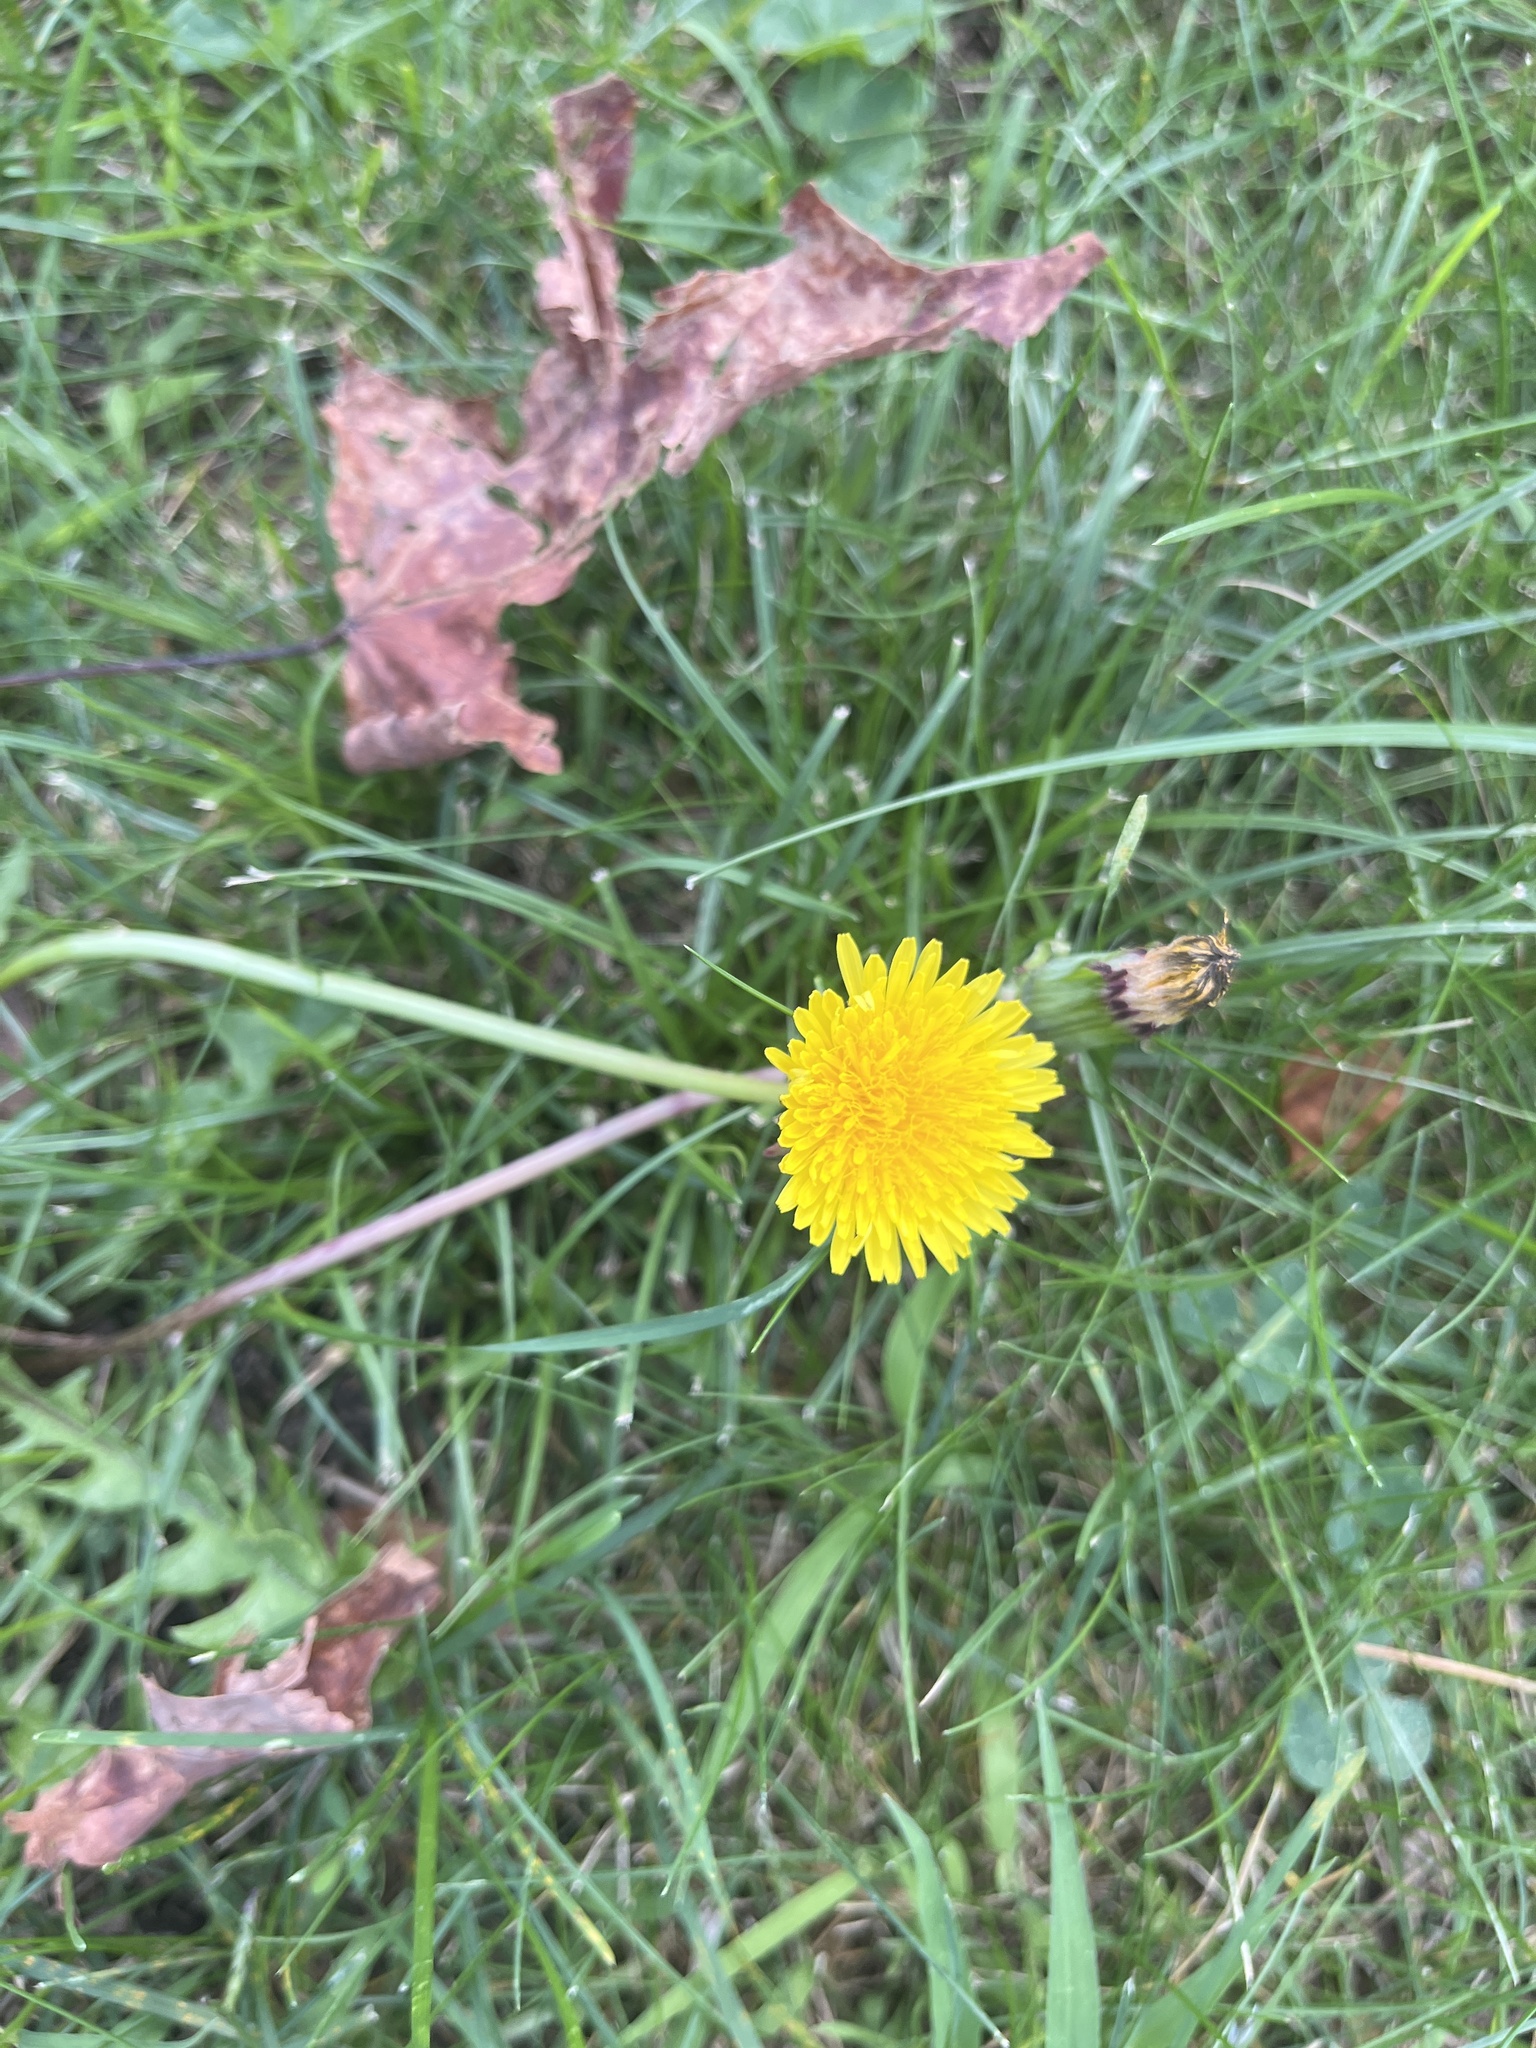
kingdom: Plantae
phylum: Tracheophyta
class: Magnoliopsida
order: Asterales
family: Asteraceae
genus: Taraxacum
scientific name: Taraxacum
